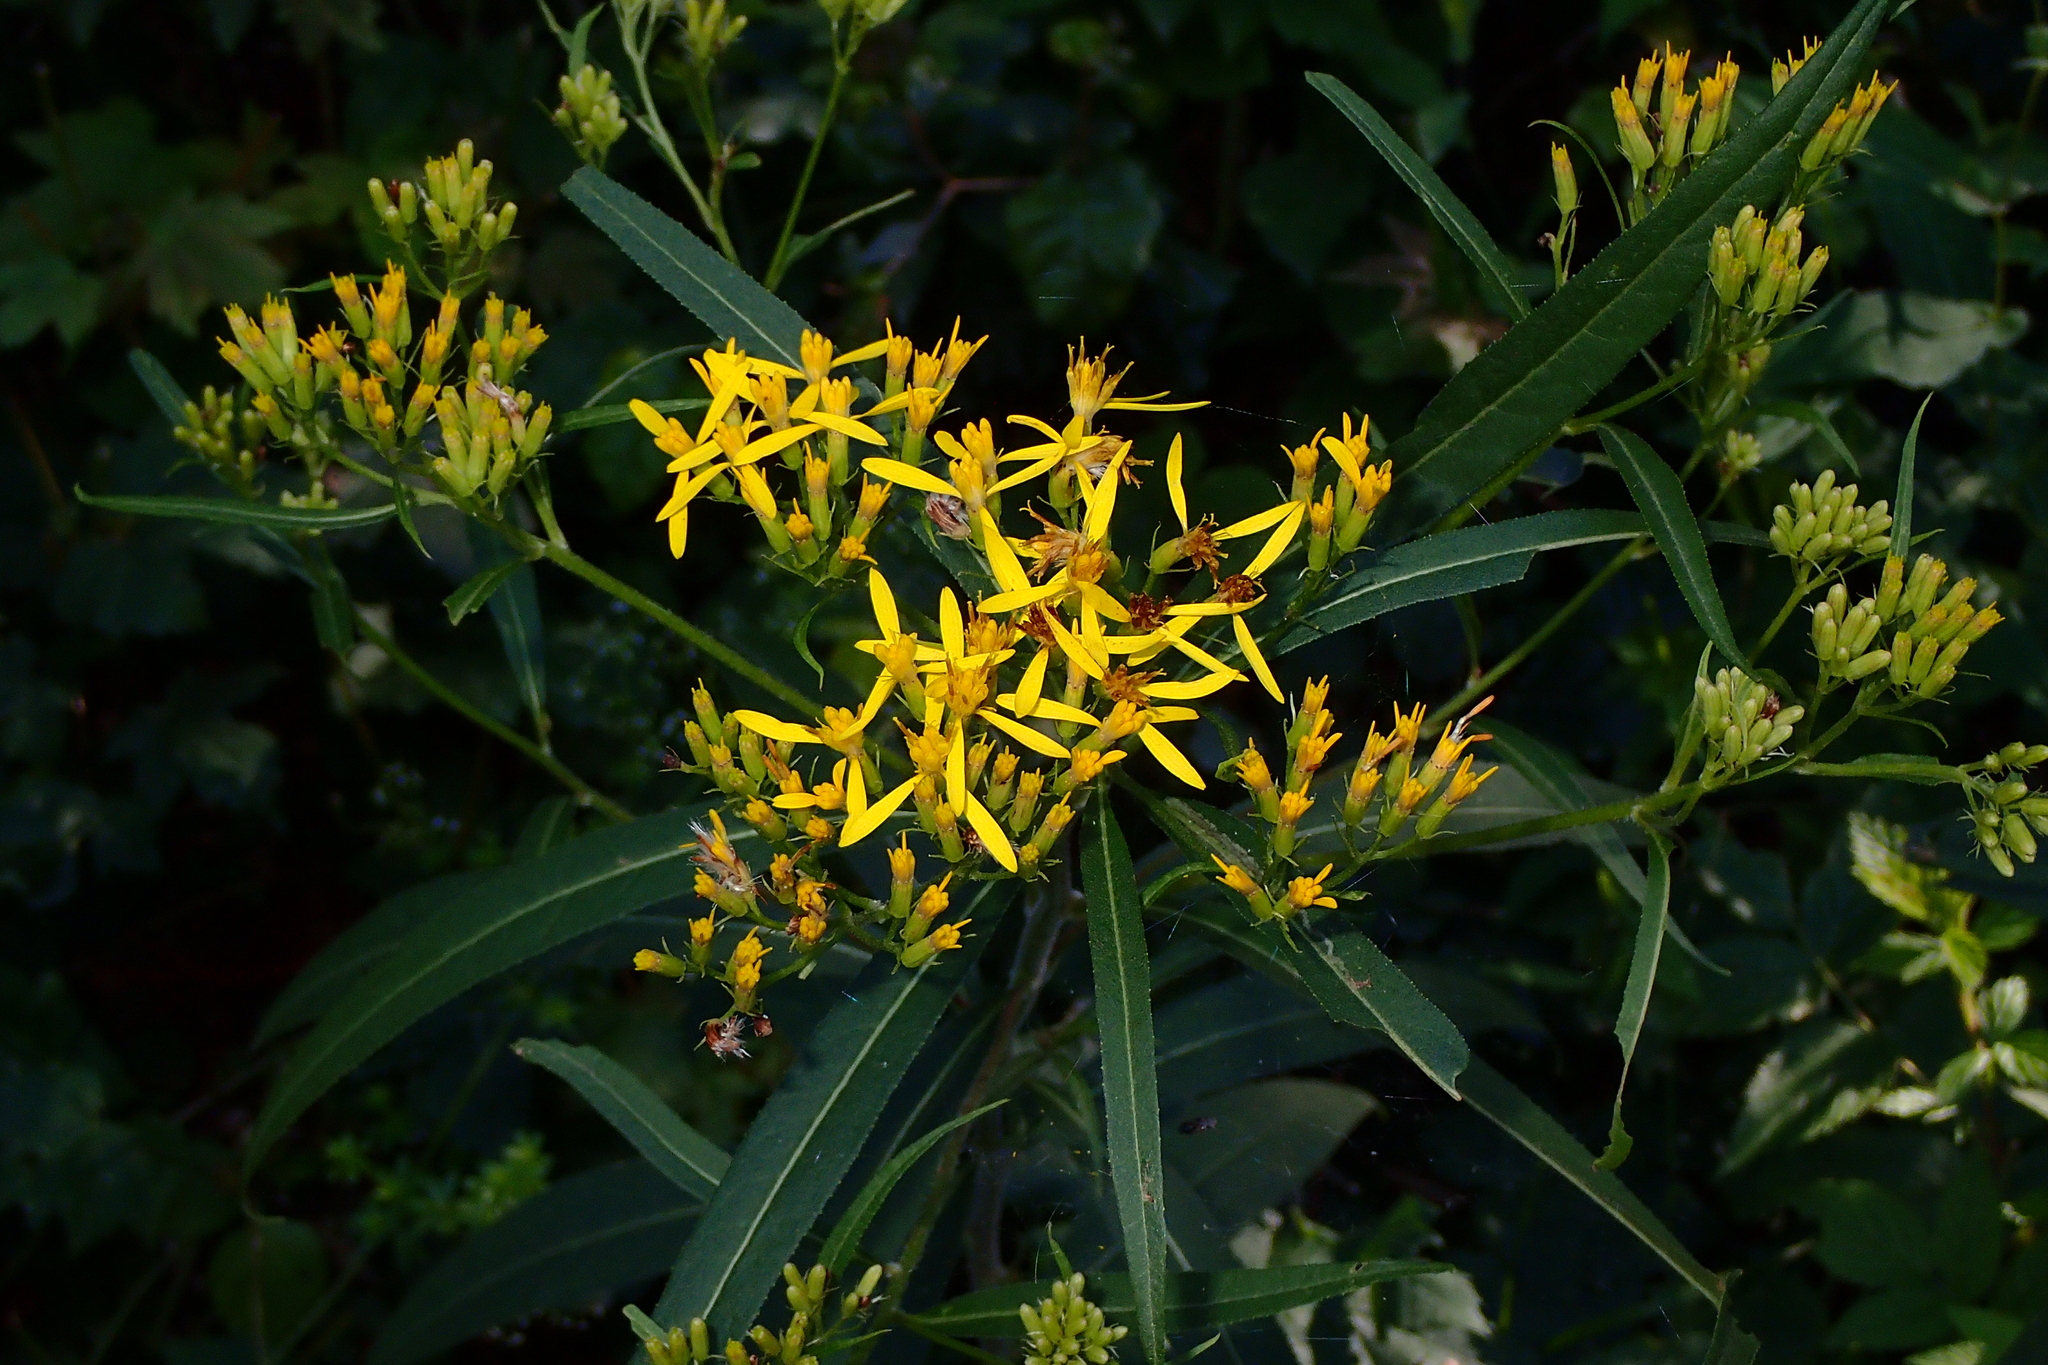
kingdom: Plantae
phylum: Tracheophyta
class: Magnoliopsida
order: Asterales
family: Asteraceae
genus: Senecio
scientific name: Senecio ovatus
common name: Wood ragwort
